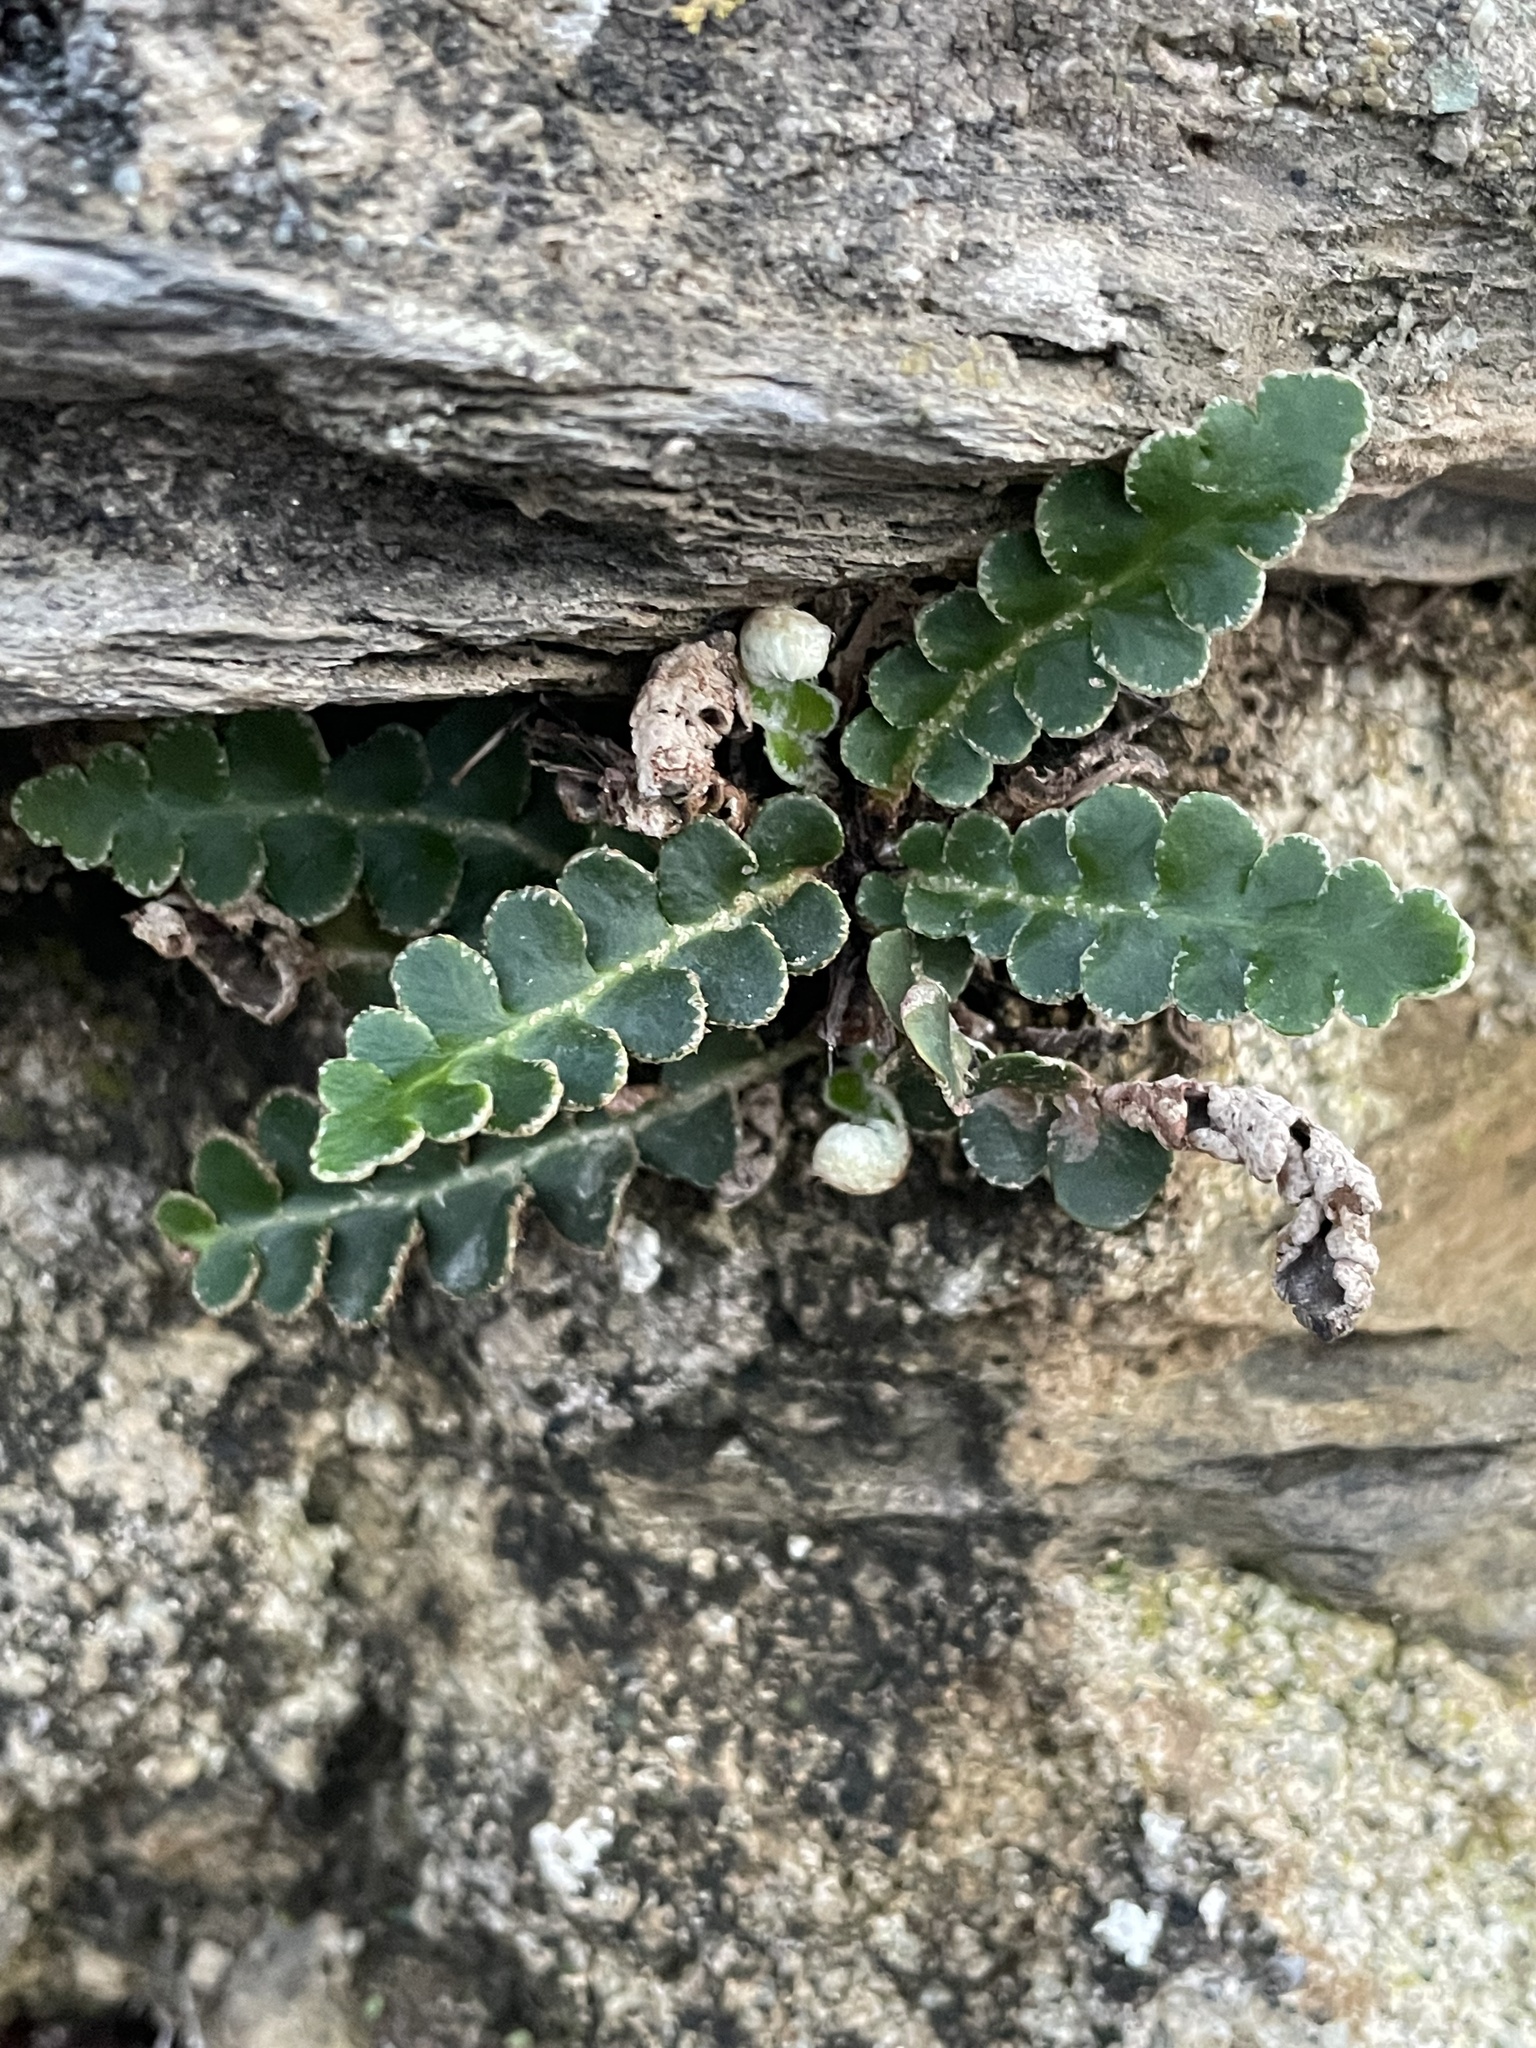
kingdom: Plantae
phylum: Tracheophyta
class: Polypodiopsida
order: Polypodiales
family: Aspleniaceae
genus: Asplenium
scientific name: Asplenium ceterach
